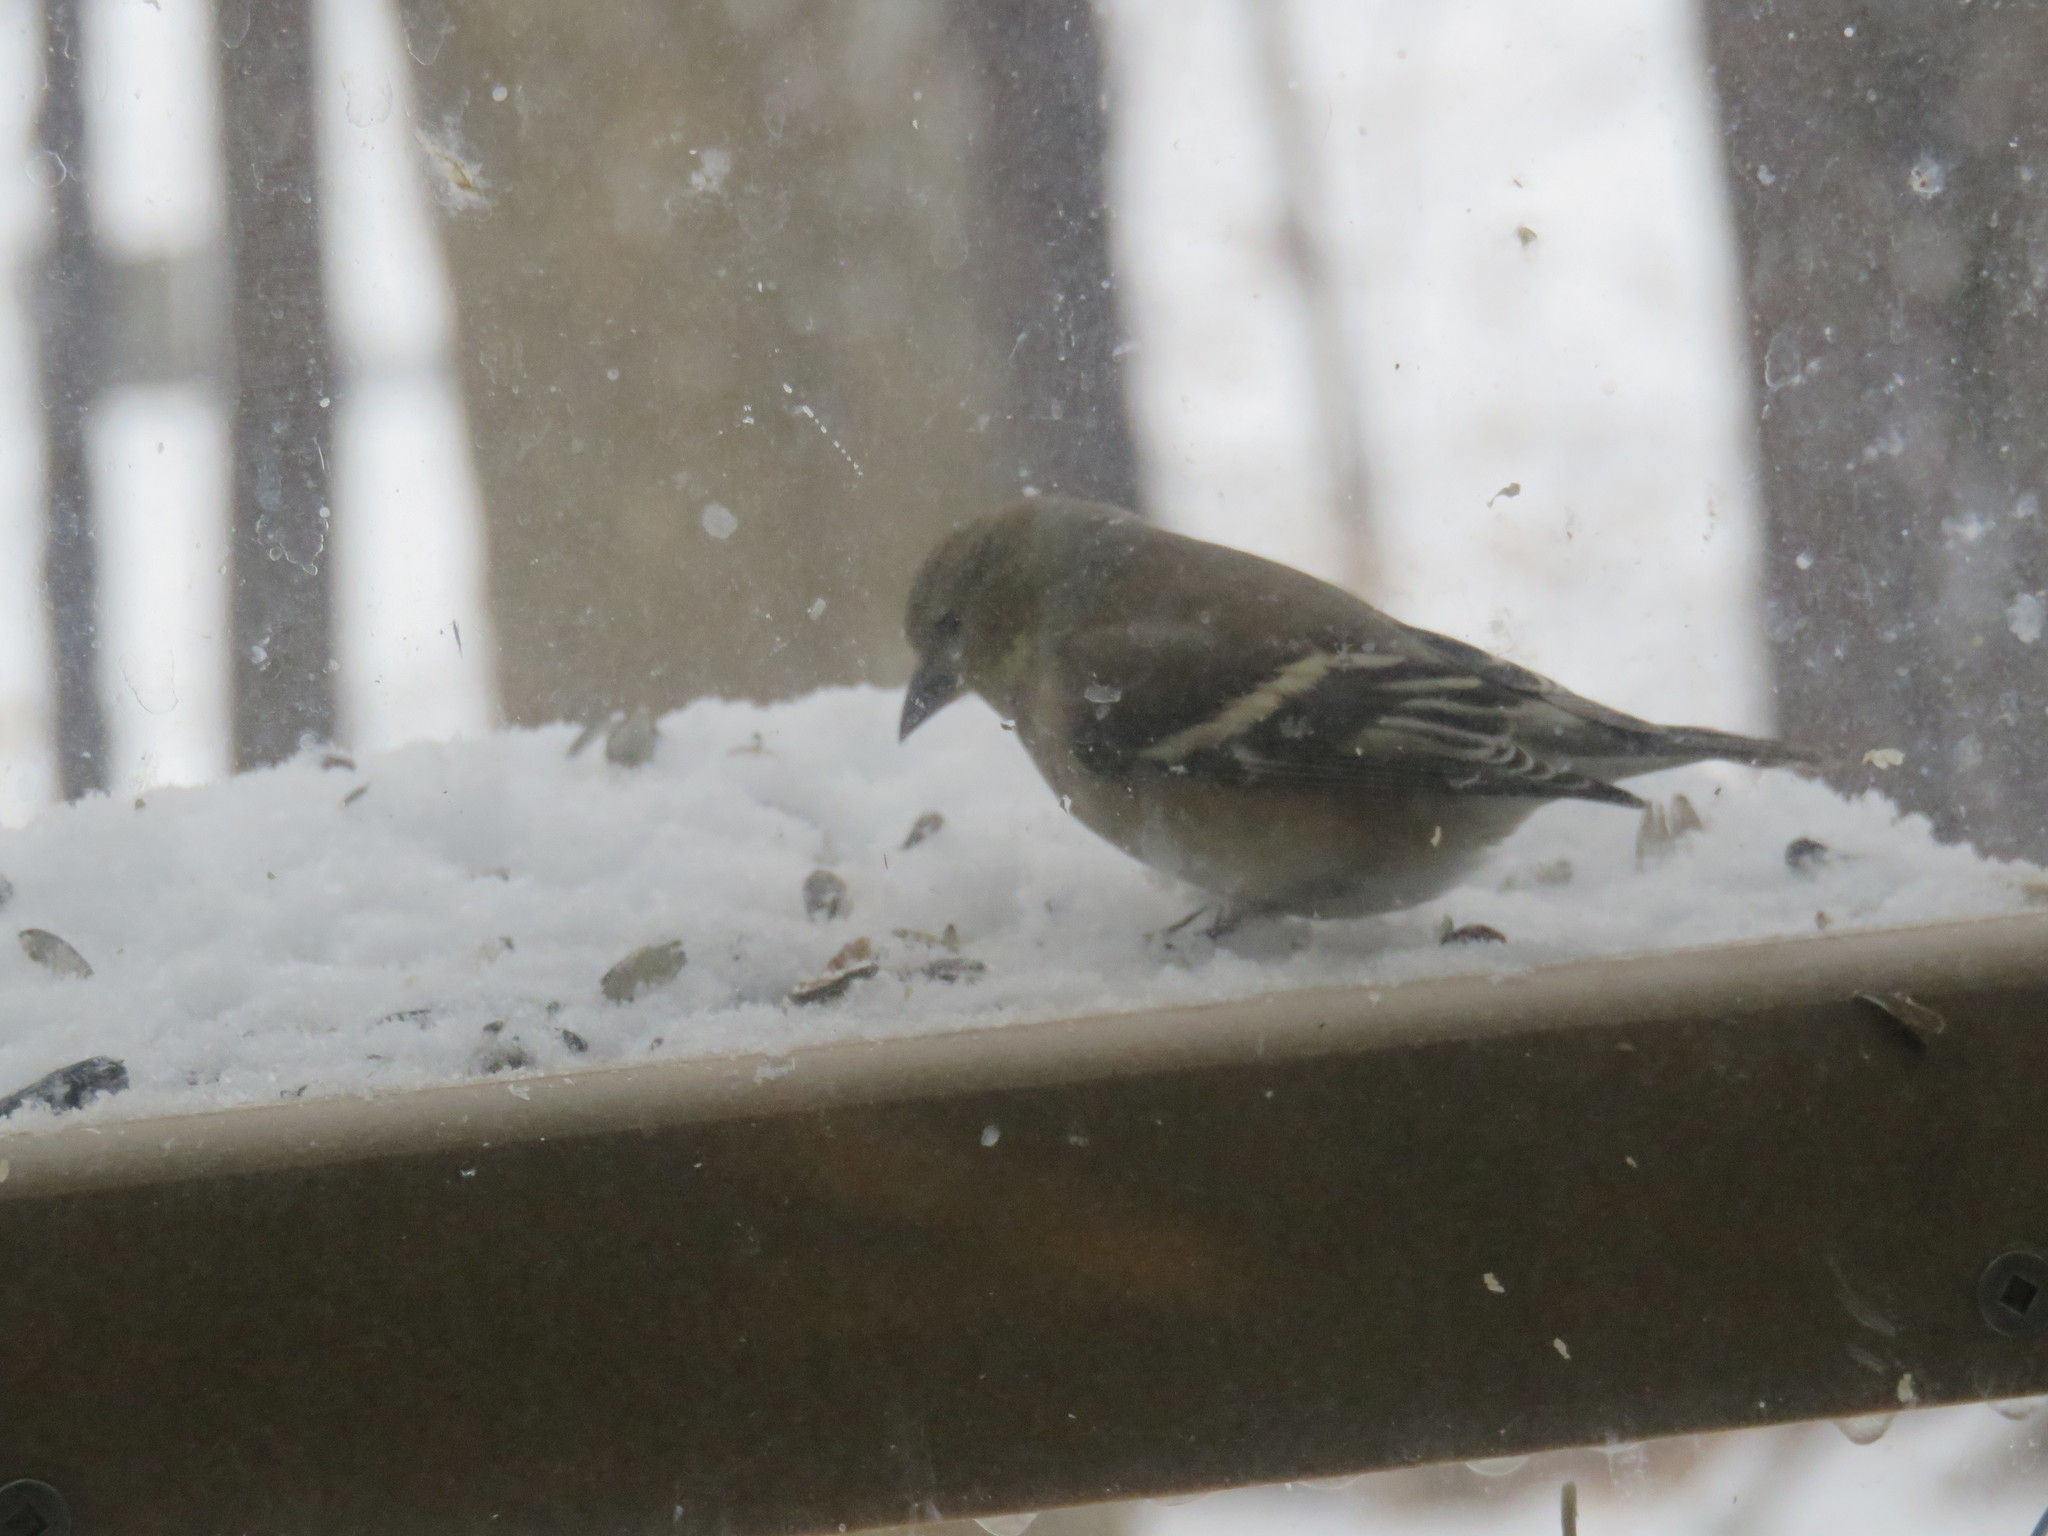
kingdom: Animalia
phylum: Chordata
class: Aves
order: Passeriformes
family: Fringillidae
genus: Spinus
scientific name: Spinus tristis
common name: American goldfinch
